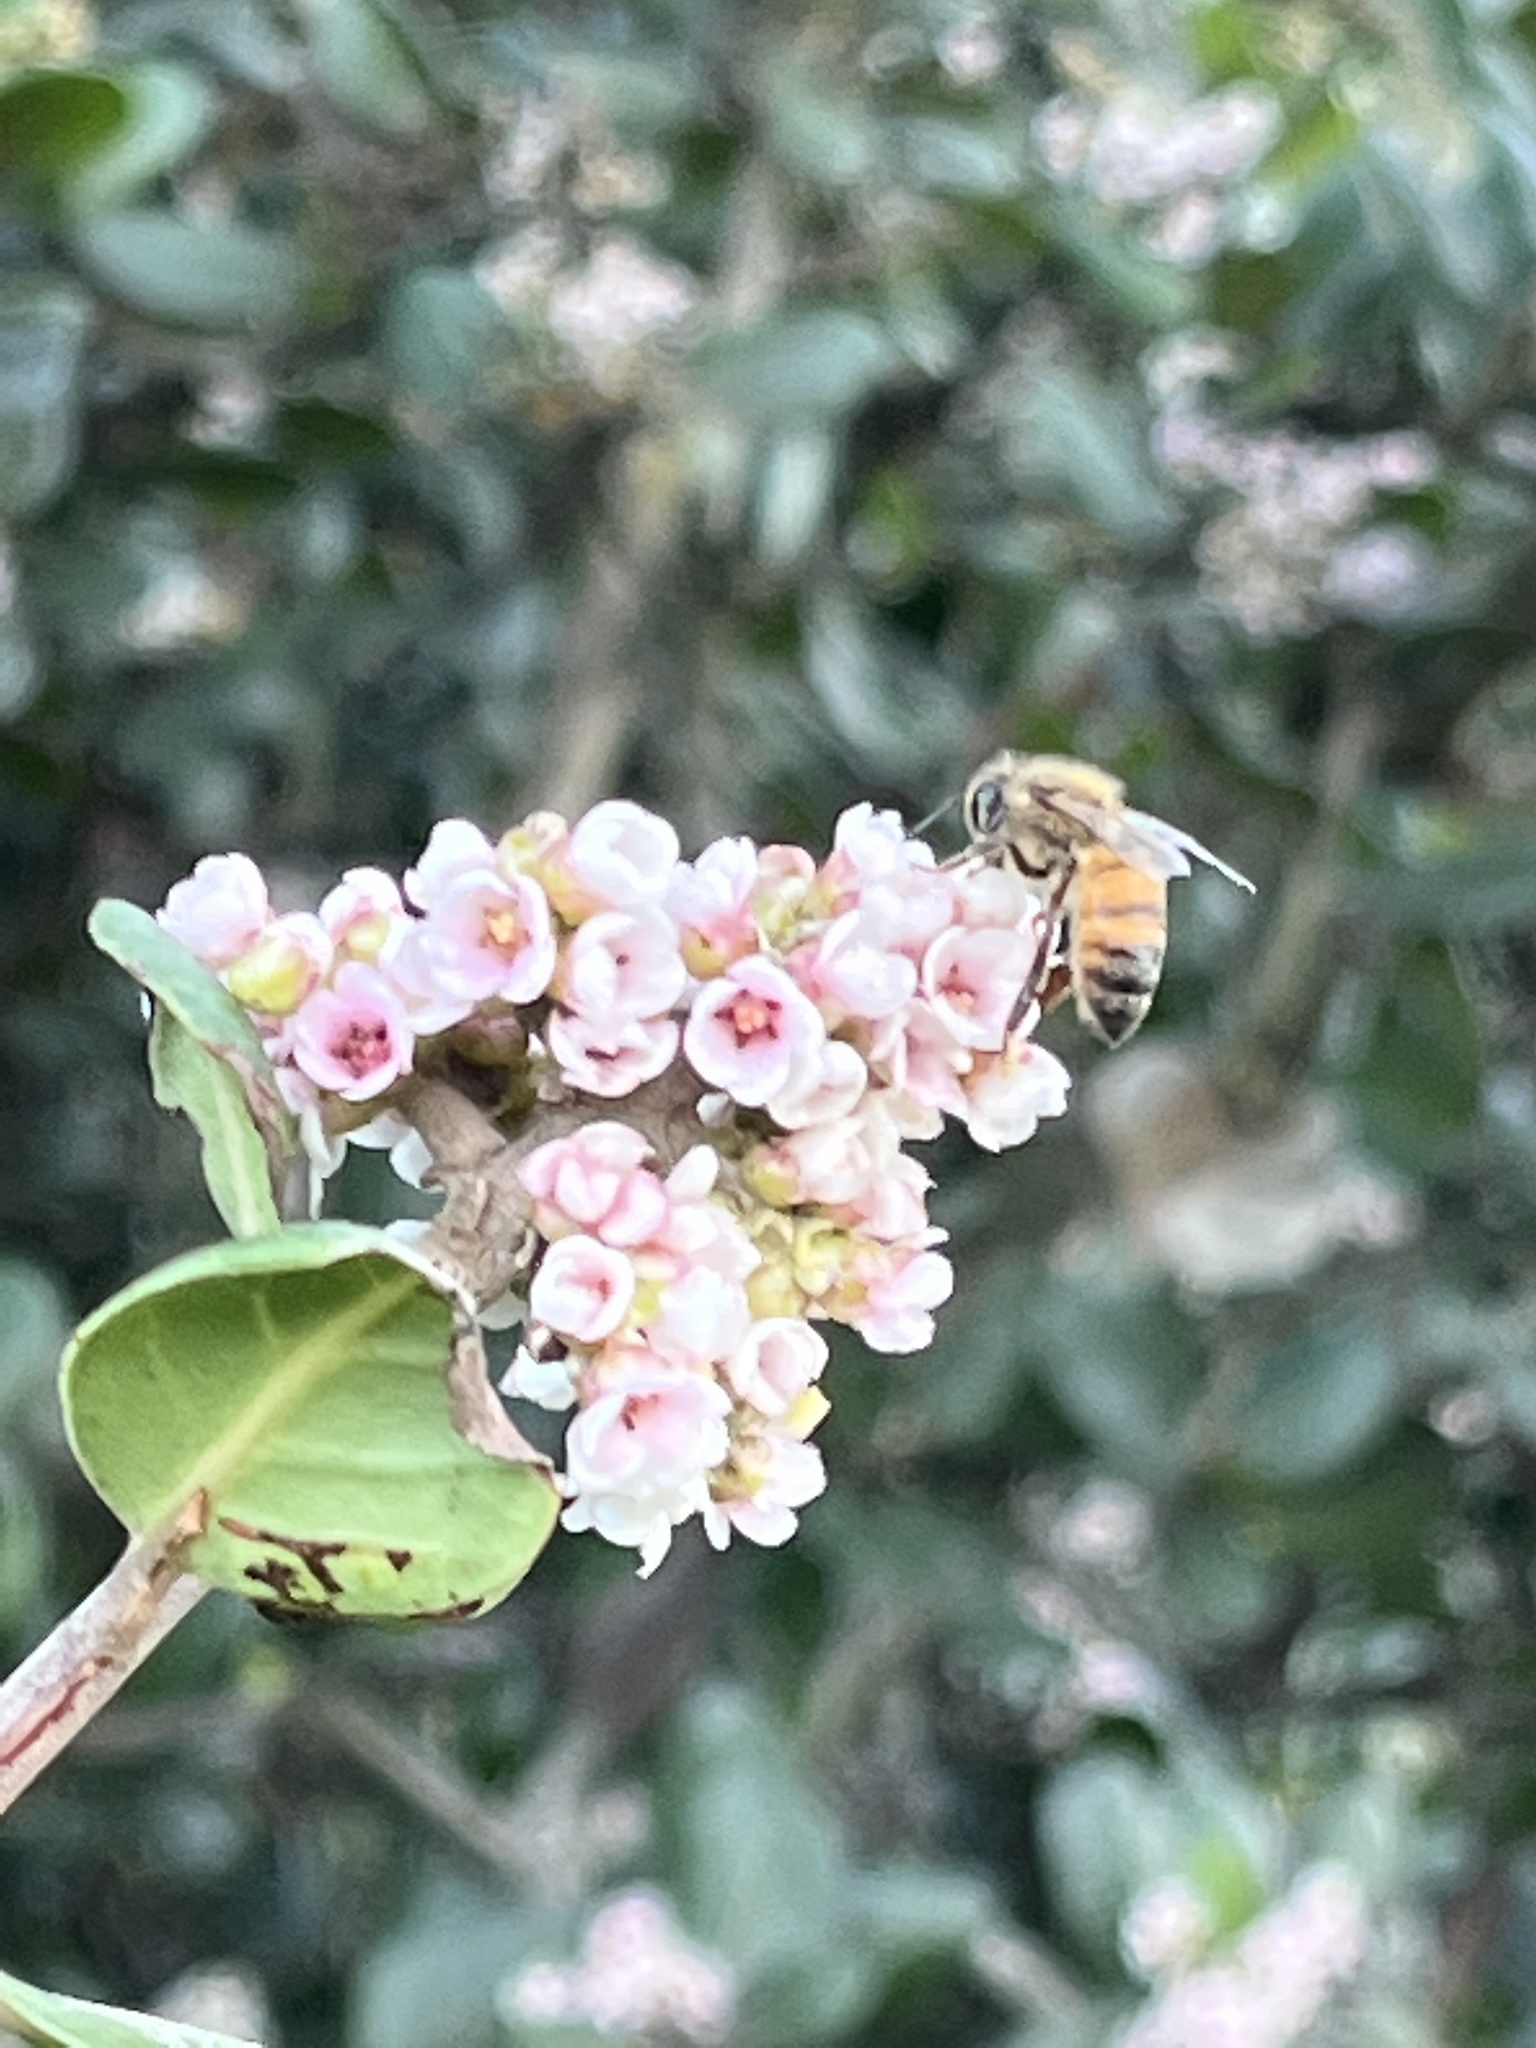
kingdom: Animalia
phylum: Arthropoda
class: Insecta
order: Hymenoptera
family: Apidae
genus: Apis
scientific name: Apis mellifera
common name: Honey bee
